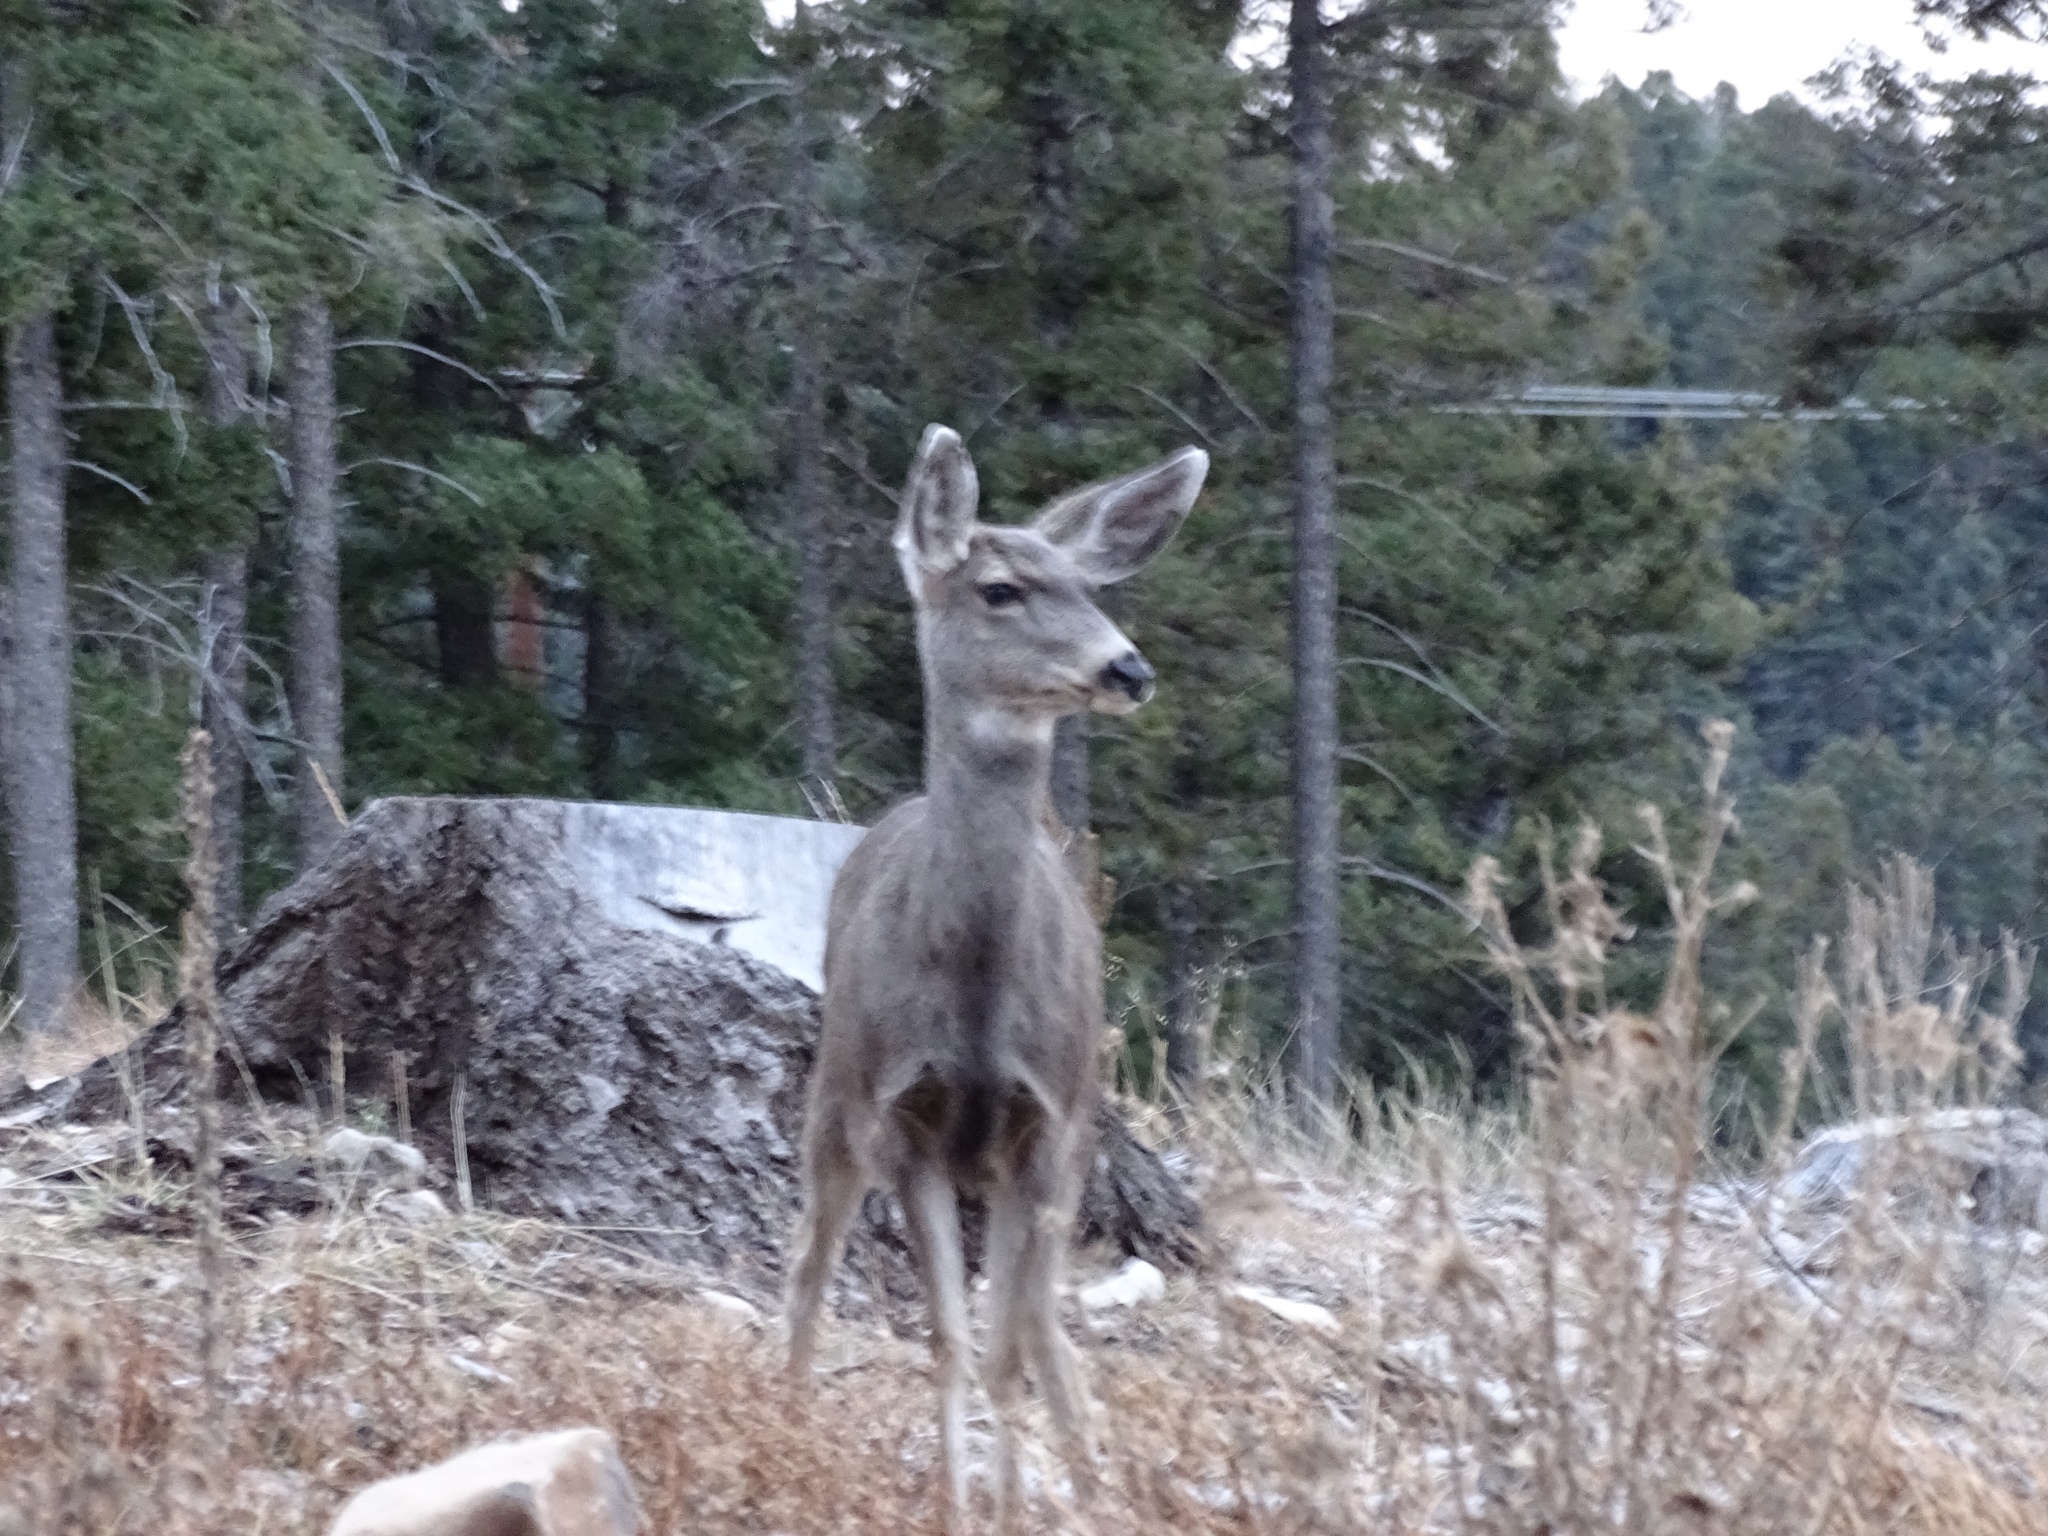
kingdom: Animalia
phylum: Chordata
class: Mammalia
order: Artiodactyla
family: Cervidae
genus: Odocoileus
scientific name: Odocoileus hemionus
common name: Mule deer
